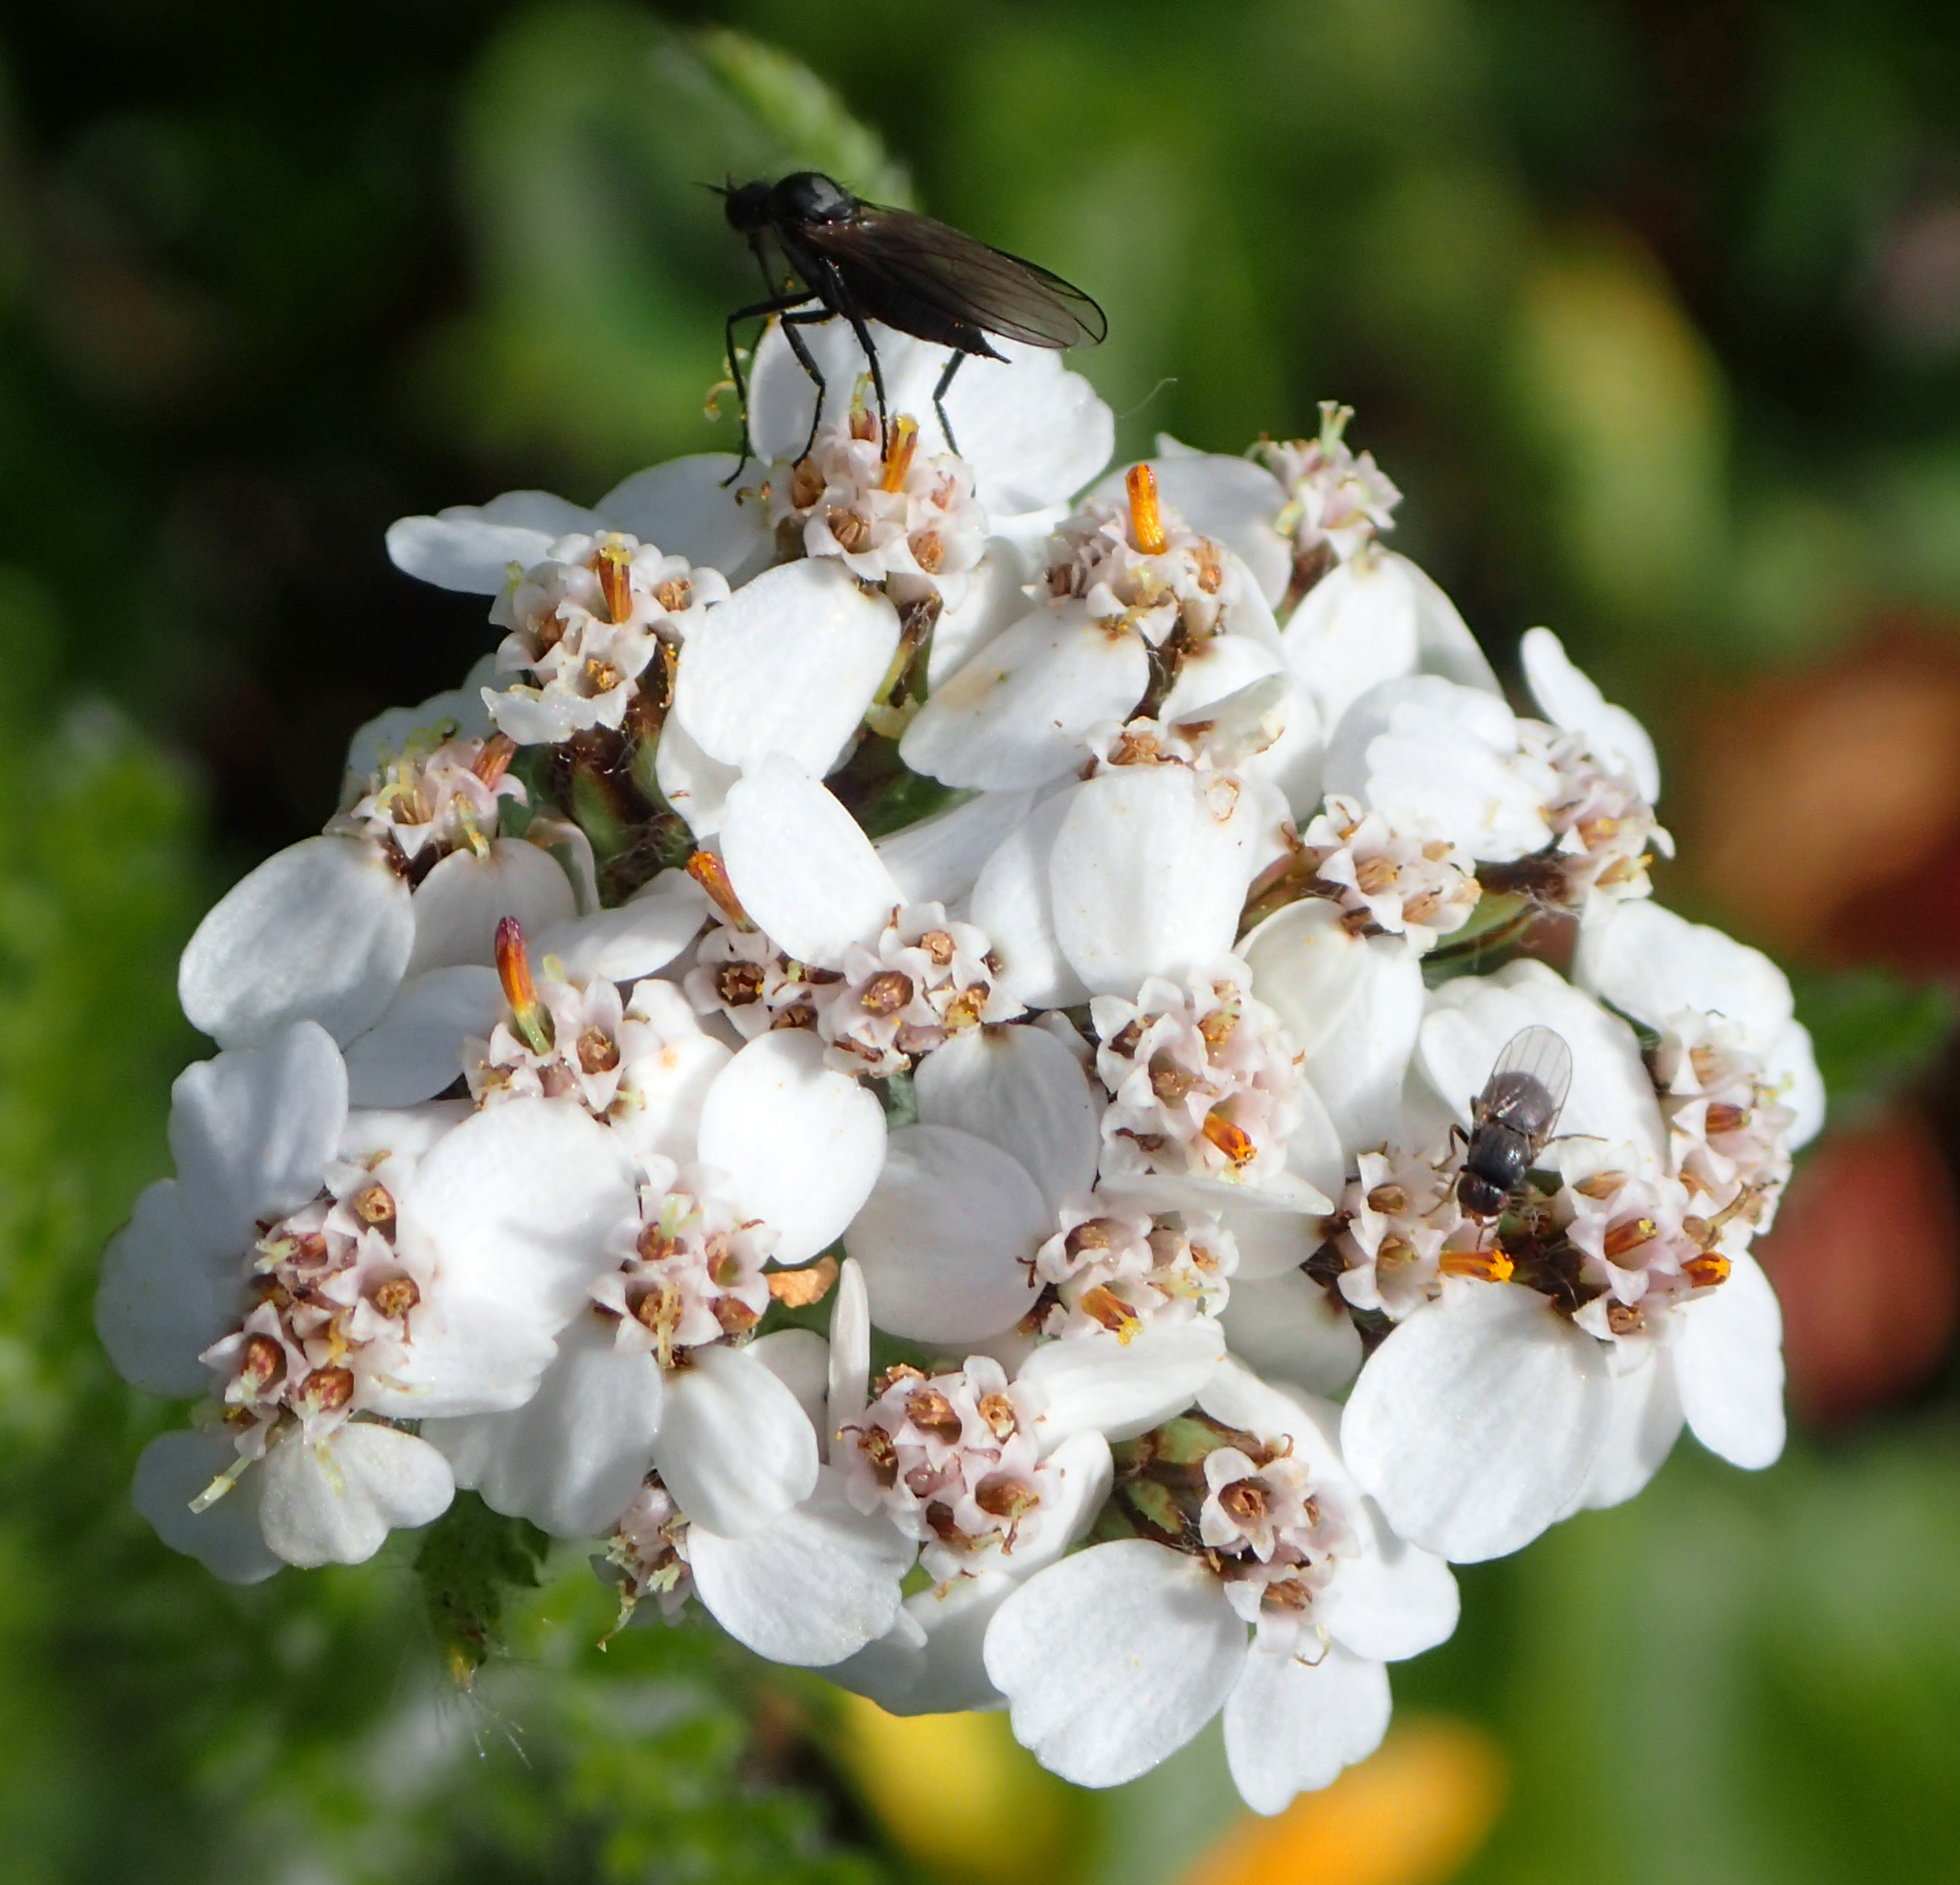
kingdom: Plantae
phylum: Tracheophyta
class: Magnoliopsida
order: Asterales
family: Asteraceae
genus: Achillea
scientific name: Achillea millefolium
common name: Yarrow
